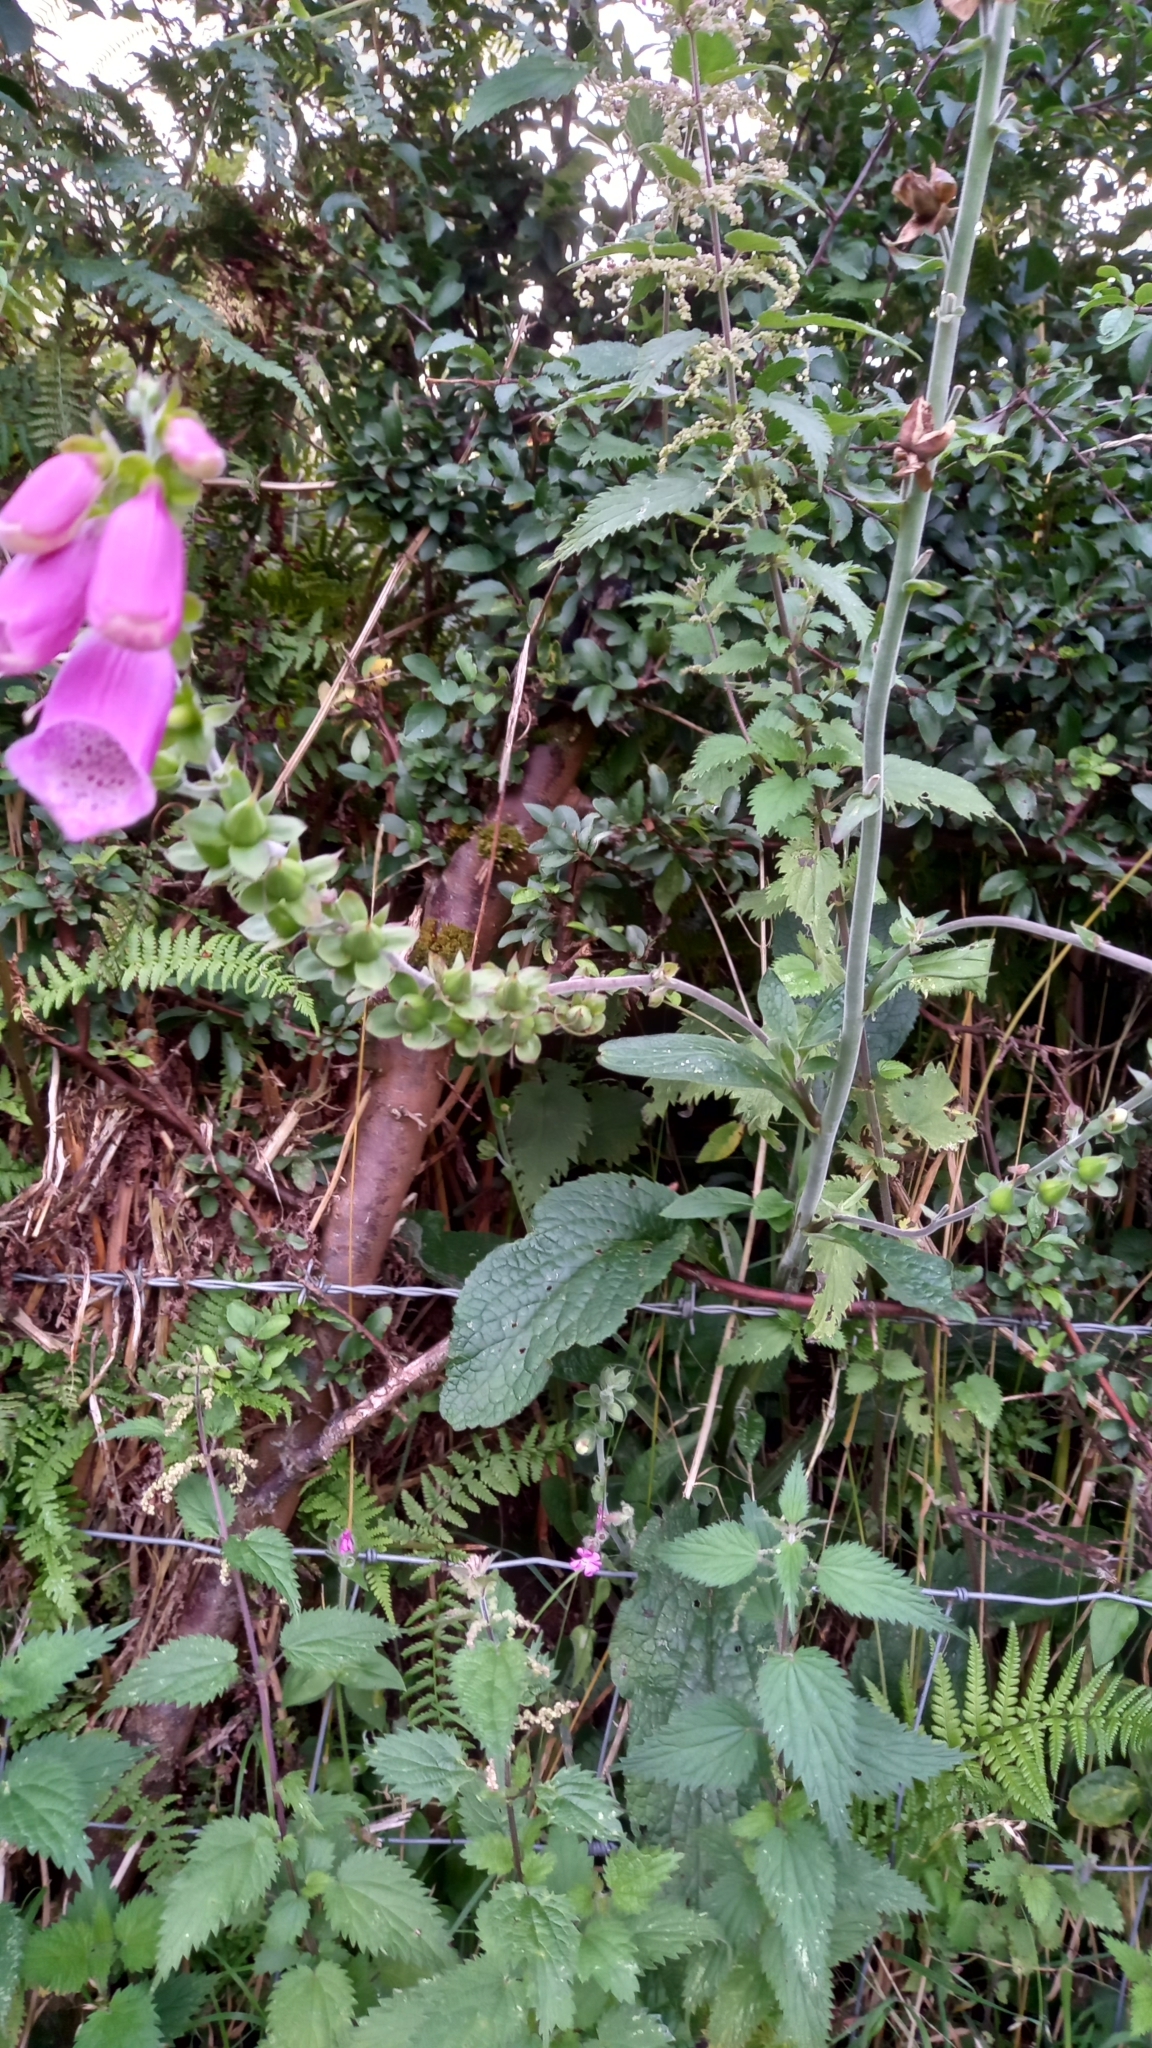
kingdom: Plantae
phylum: Tracheophyta
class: Magnoliopsida
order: Lamiales
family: Plantaginaceae
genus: Digitalis
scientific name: Digitalis purpurea
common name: Foxglove
